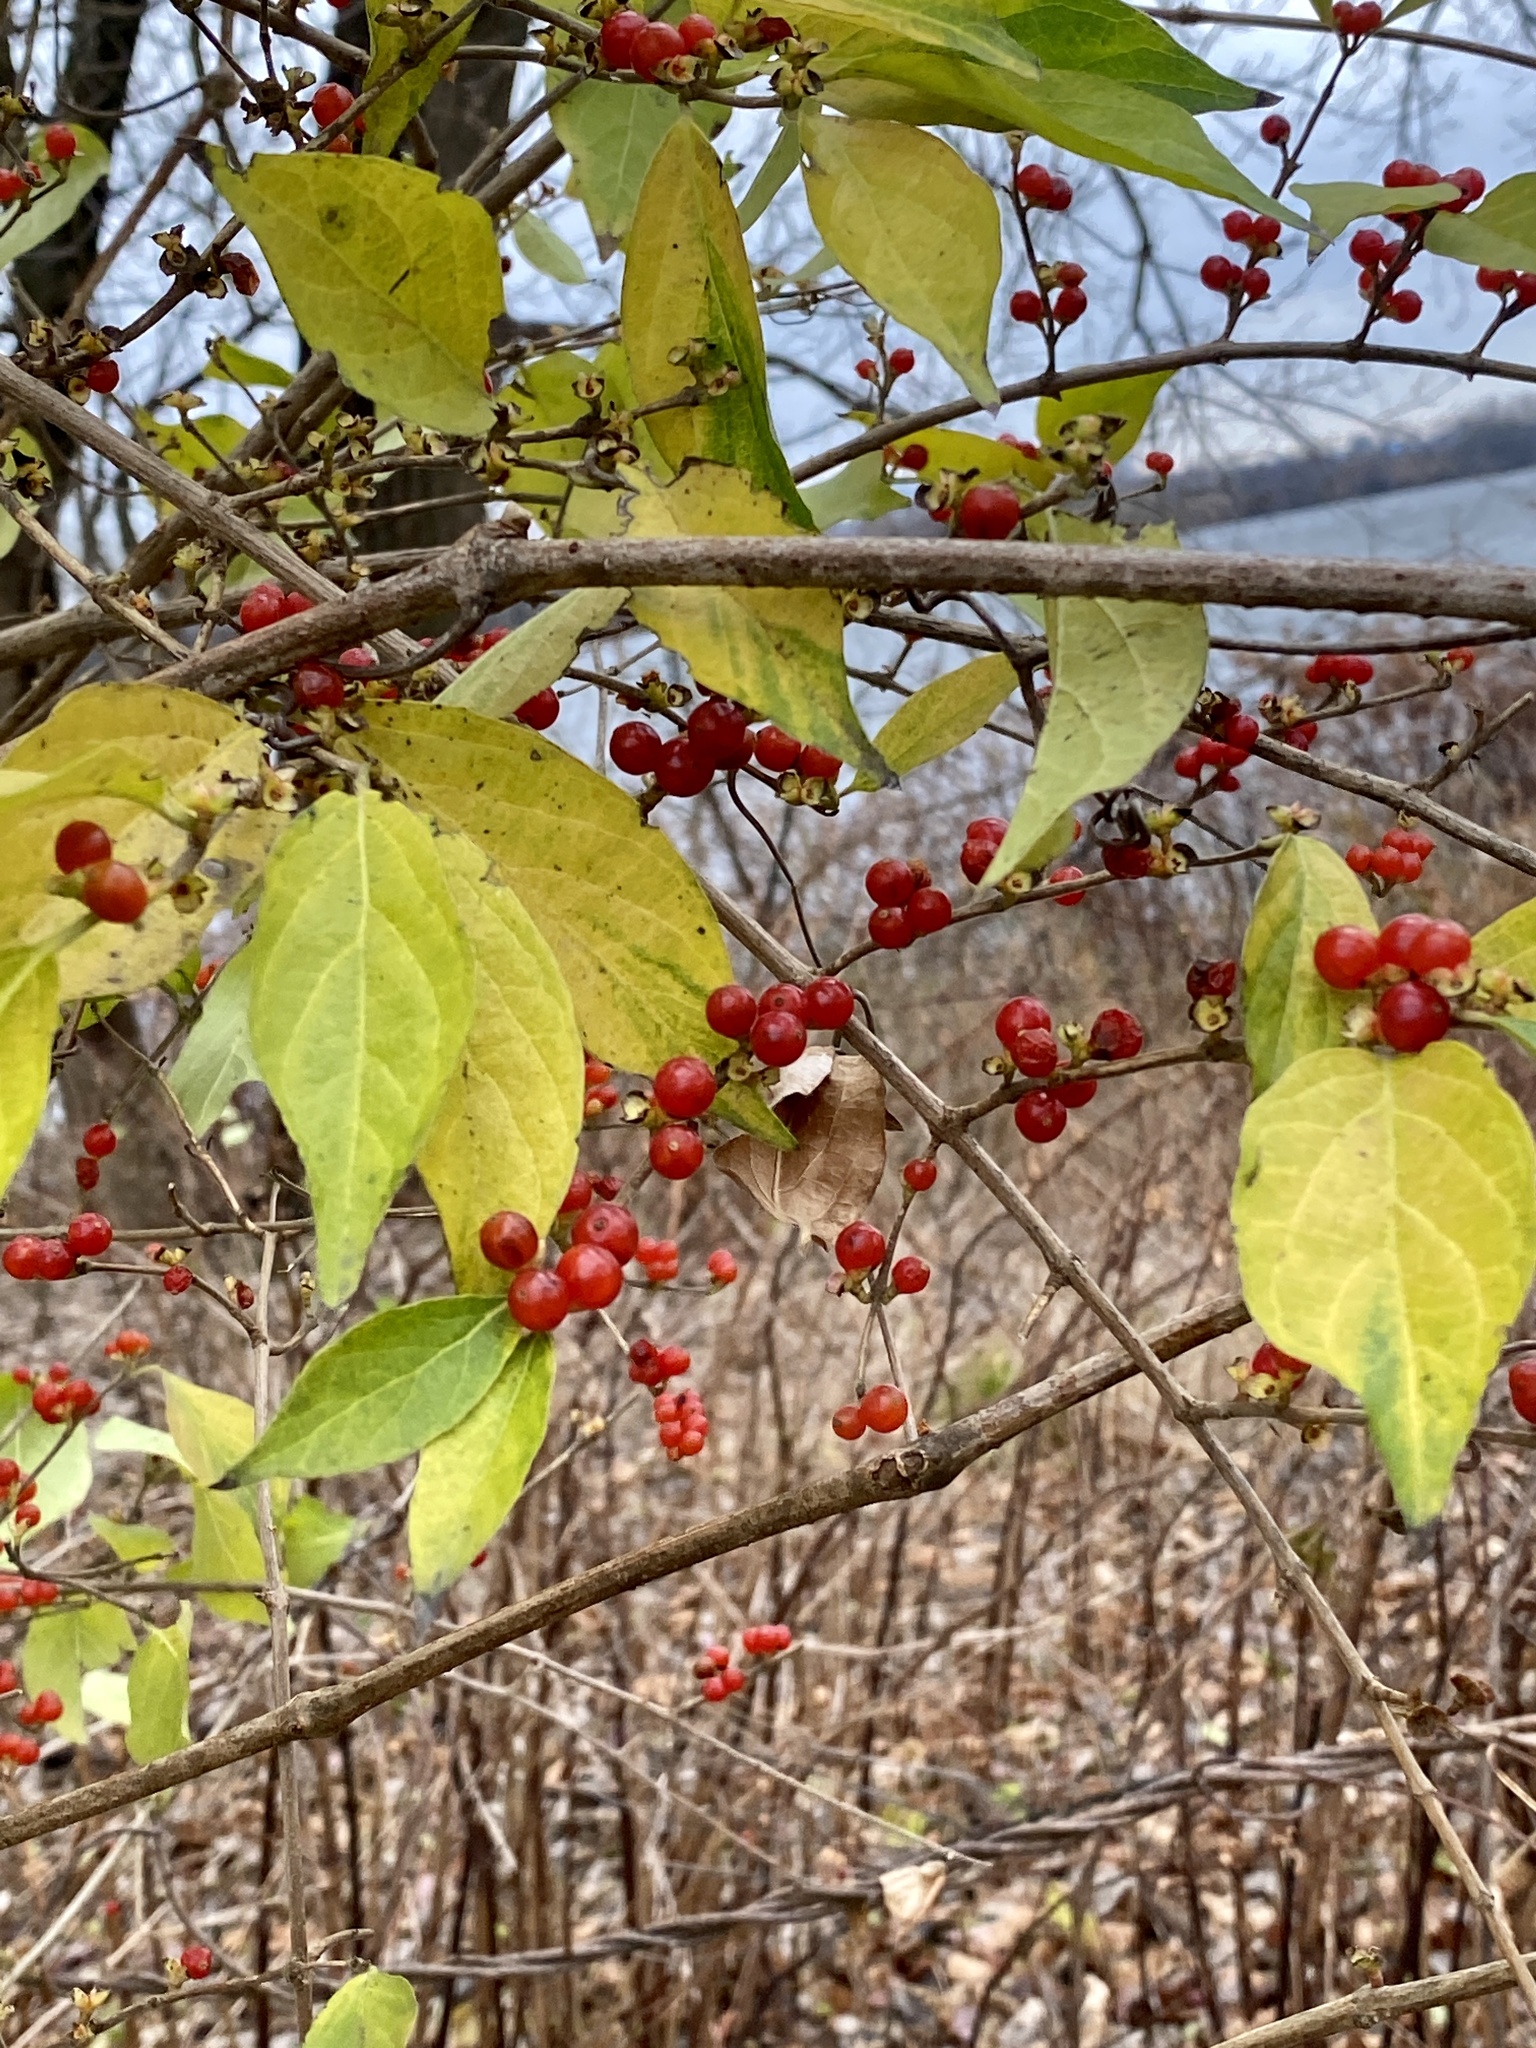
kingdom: Plantae
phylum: Tracheophyta
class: Magnoliopsida
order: Dipsacales
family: Caprifoliaceae
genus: Lonicera
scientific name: Lonicera maackii
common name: Amur honeysuckle
